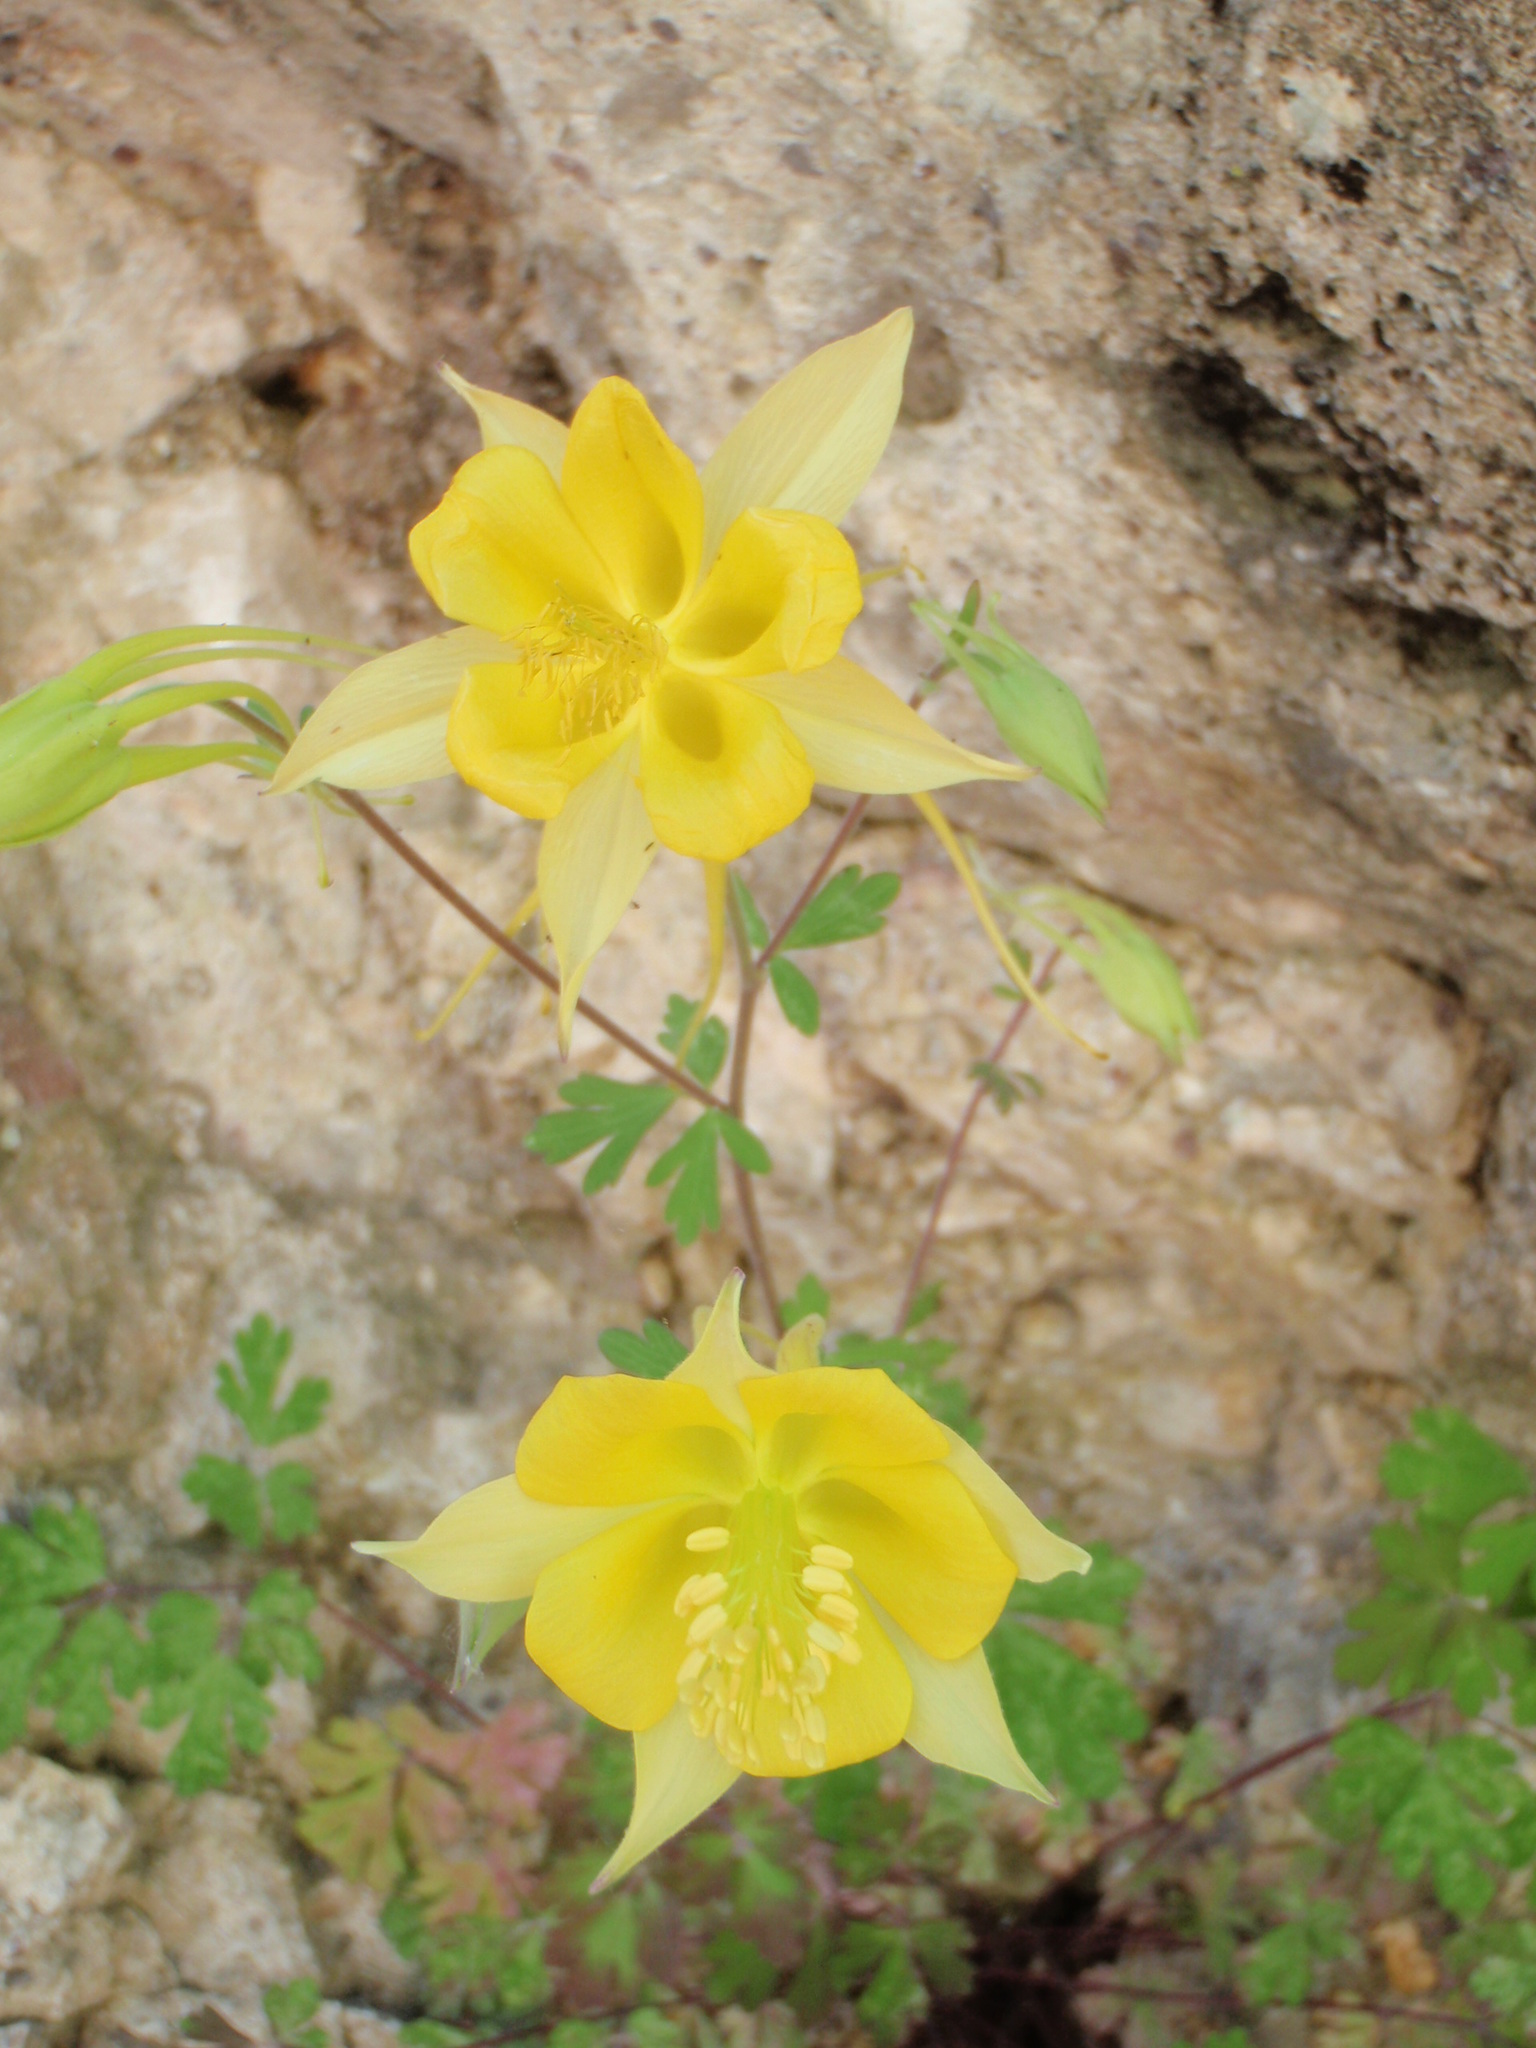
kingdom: Plantae
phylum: Tracheophyta
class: Magnoliopsida
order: Ranunculales
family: Ranunculaceae
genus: Aquilegia
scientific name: Aquilegia chrysantha
